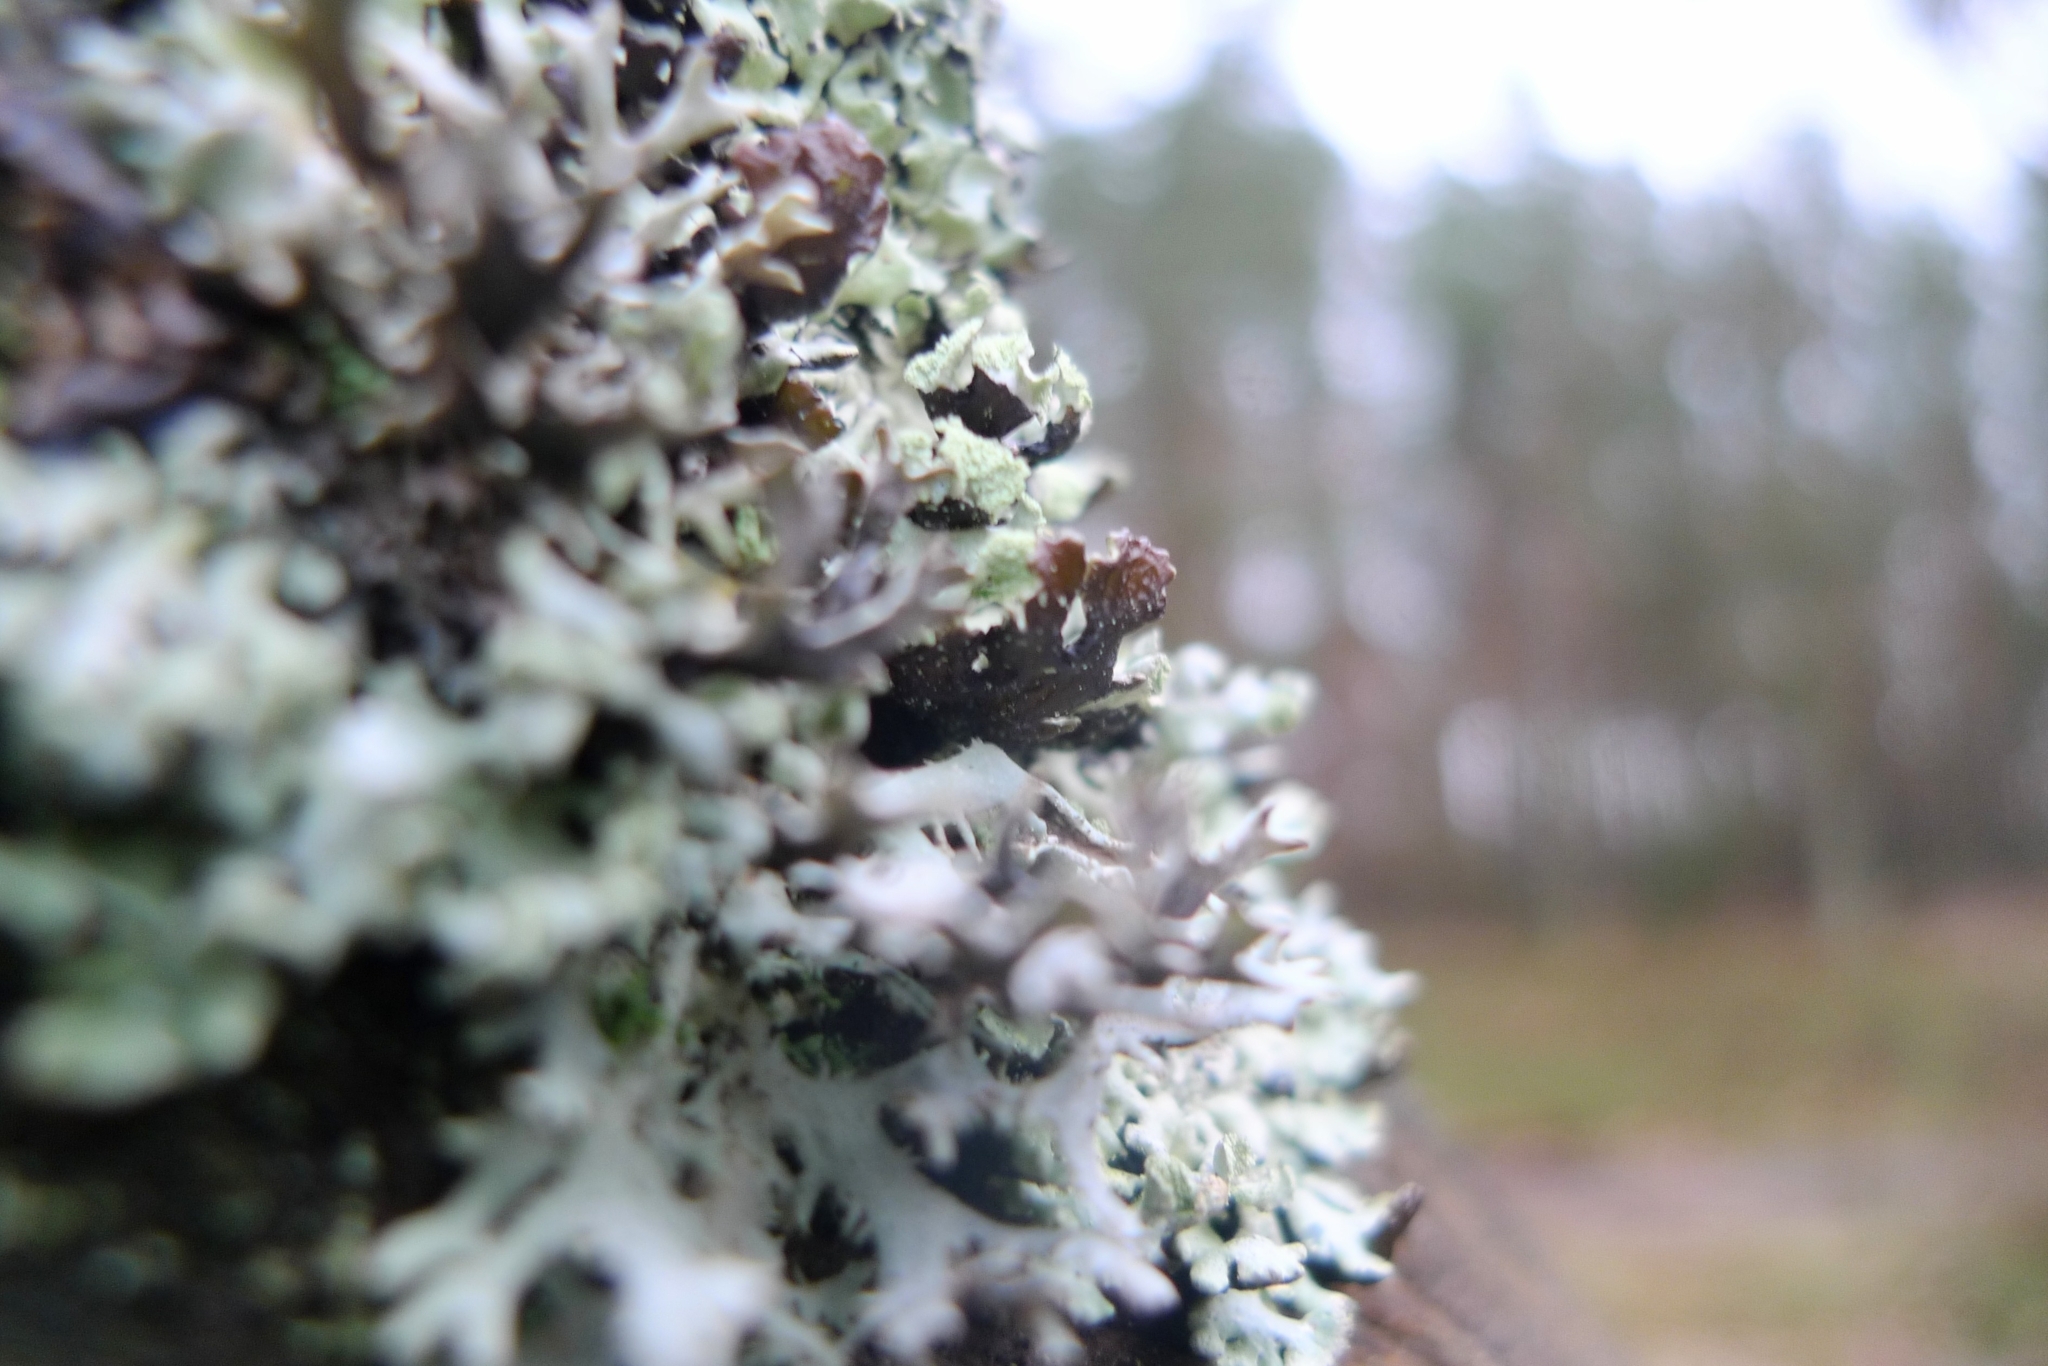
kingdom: Fungi
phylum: Ascomycota
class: Lecanoromycetes
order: Lecanorales
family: Parmeliaceae
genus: Hypogymnia
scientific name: Hypogymnia physodes
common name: Dark crottle
